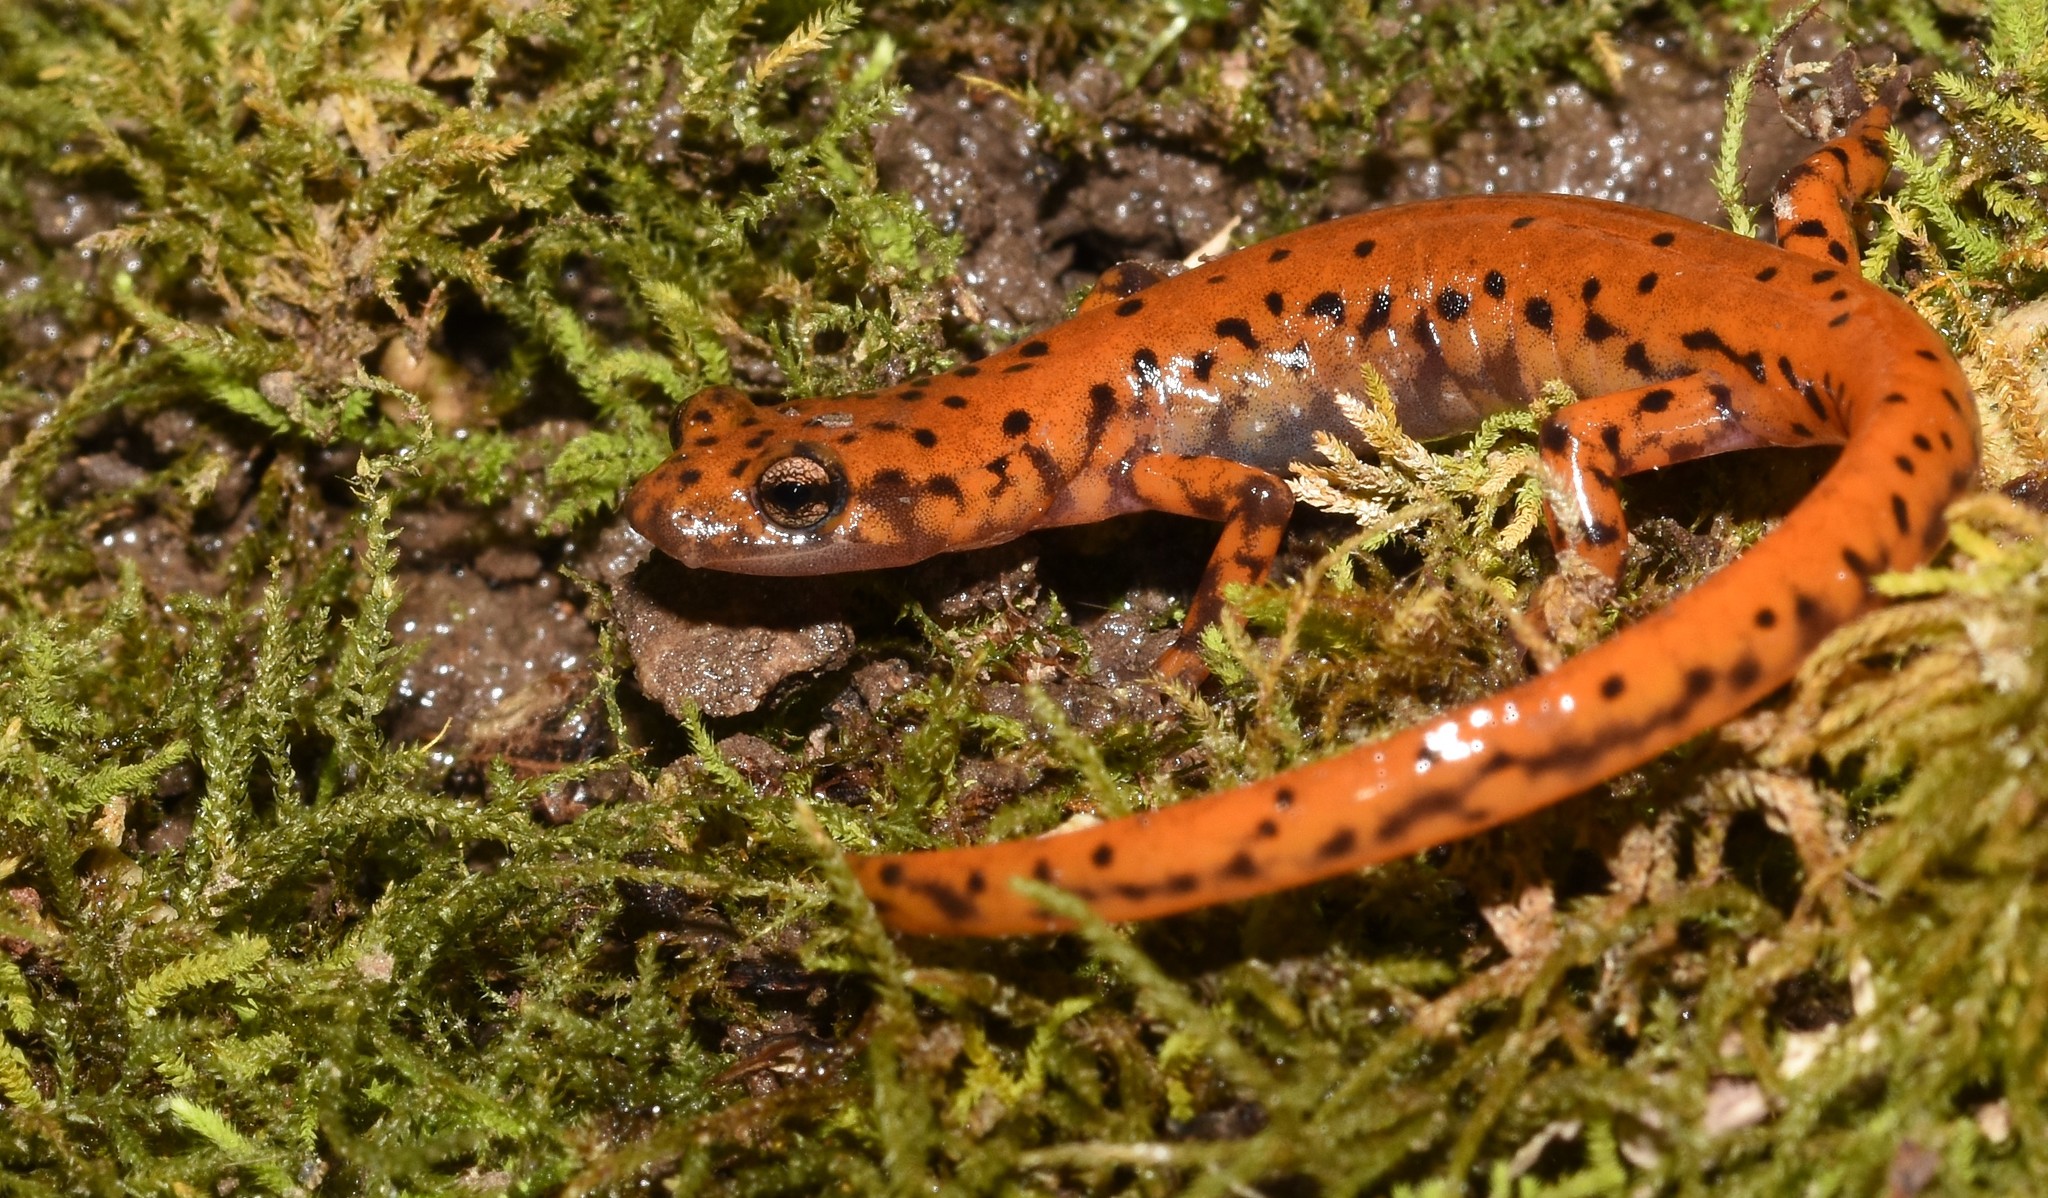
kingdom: Animalia
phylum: Chordata
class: Amphibia
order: Caudata
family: Plethodontidae
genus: Eurycea
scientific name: Eurycea lucifuga
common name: Cave salamander
